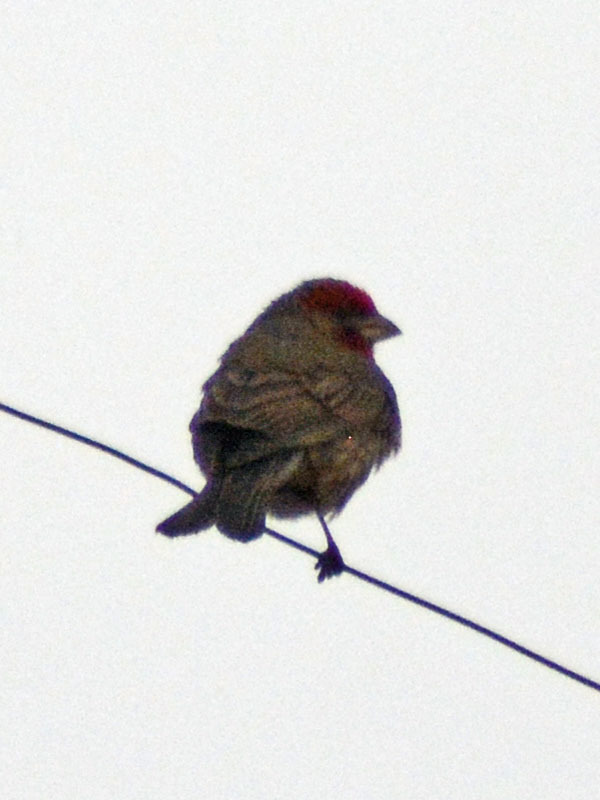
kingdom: Animalia
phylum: Chordata
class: Aves
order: Passeriformes
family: Fringillidae
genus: Haemorhous
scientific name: Haemorhous mexicanus
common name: House finch
